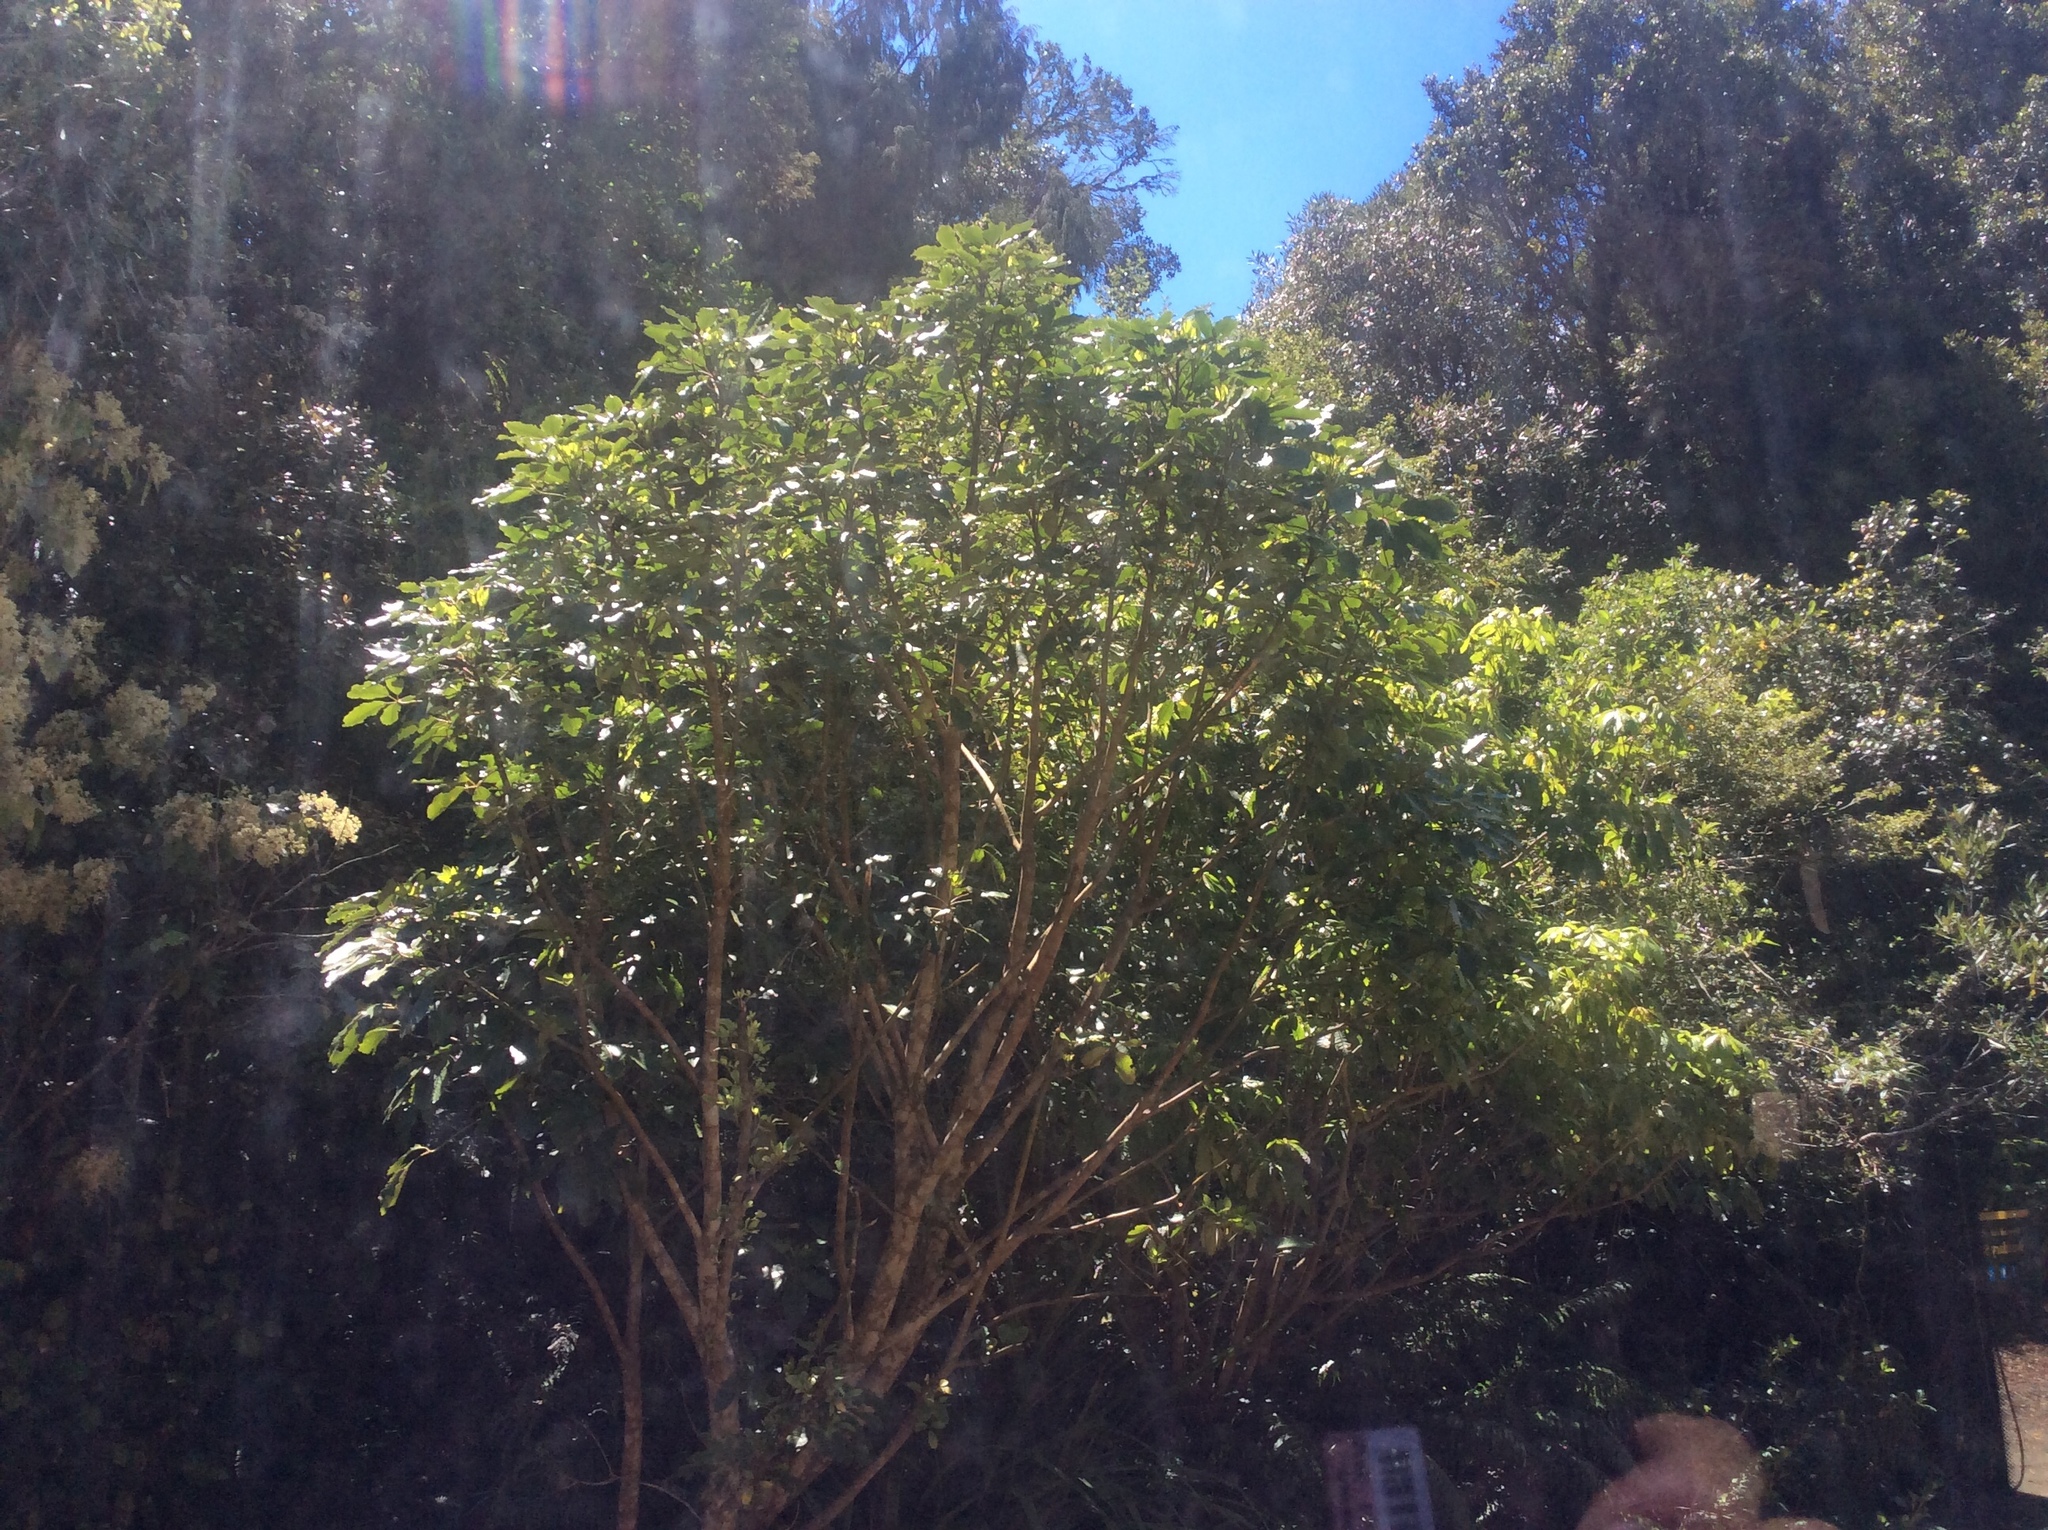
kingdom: Plantae
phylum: Tracheophyta
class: Magnoliopsida
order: Apiales
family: Araliaceae
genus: Neopanax
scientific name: Neopanax arboreus
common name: Five-fingers
